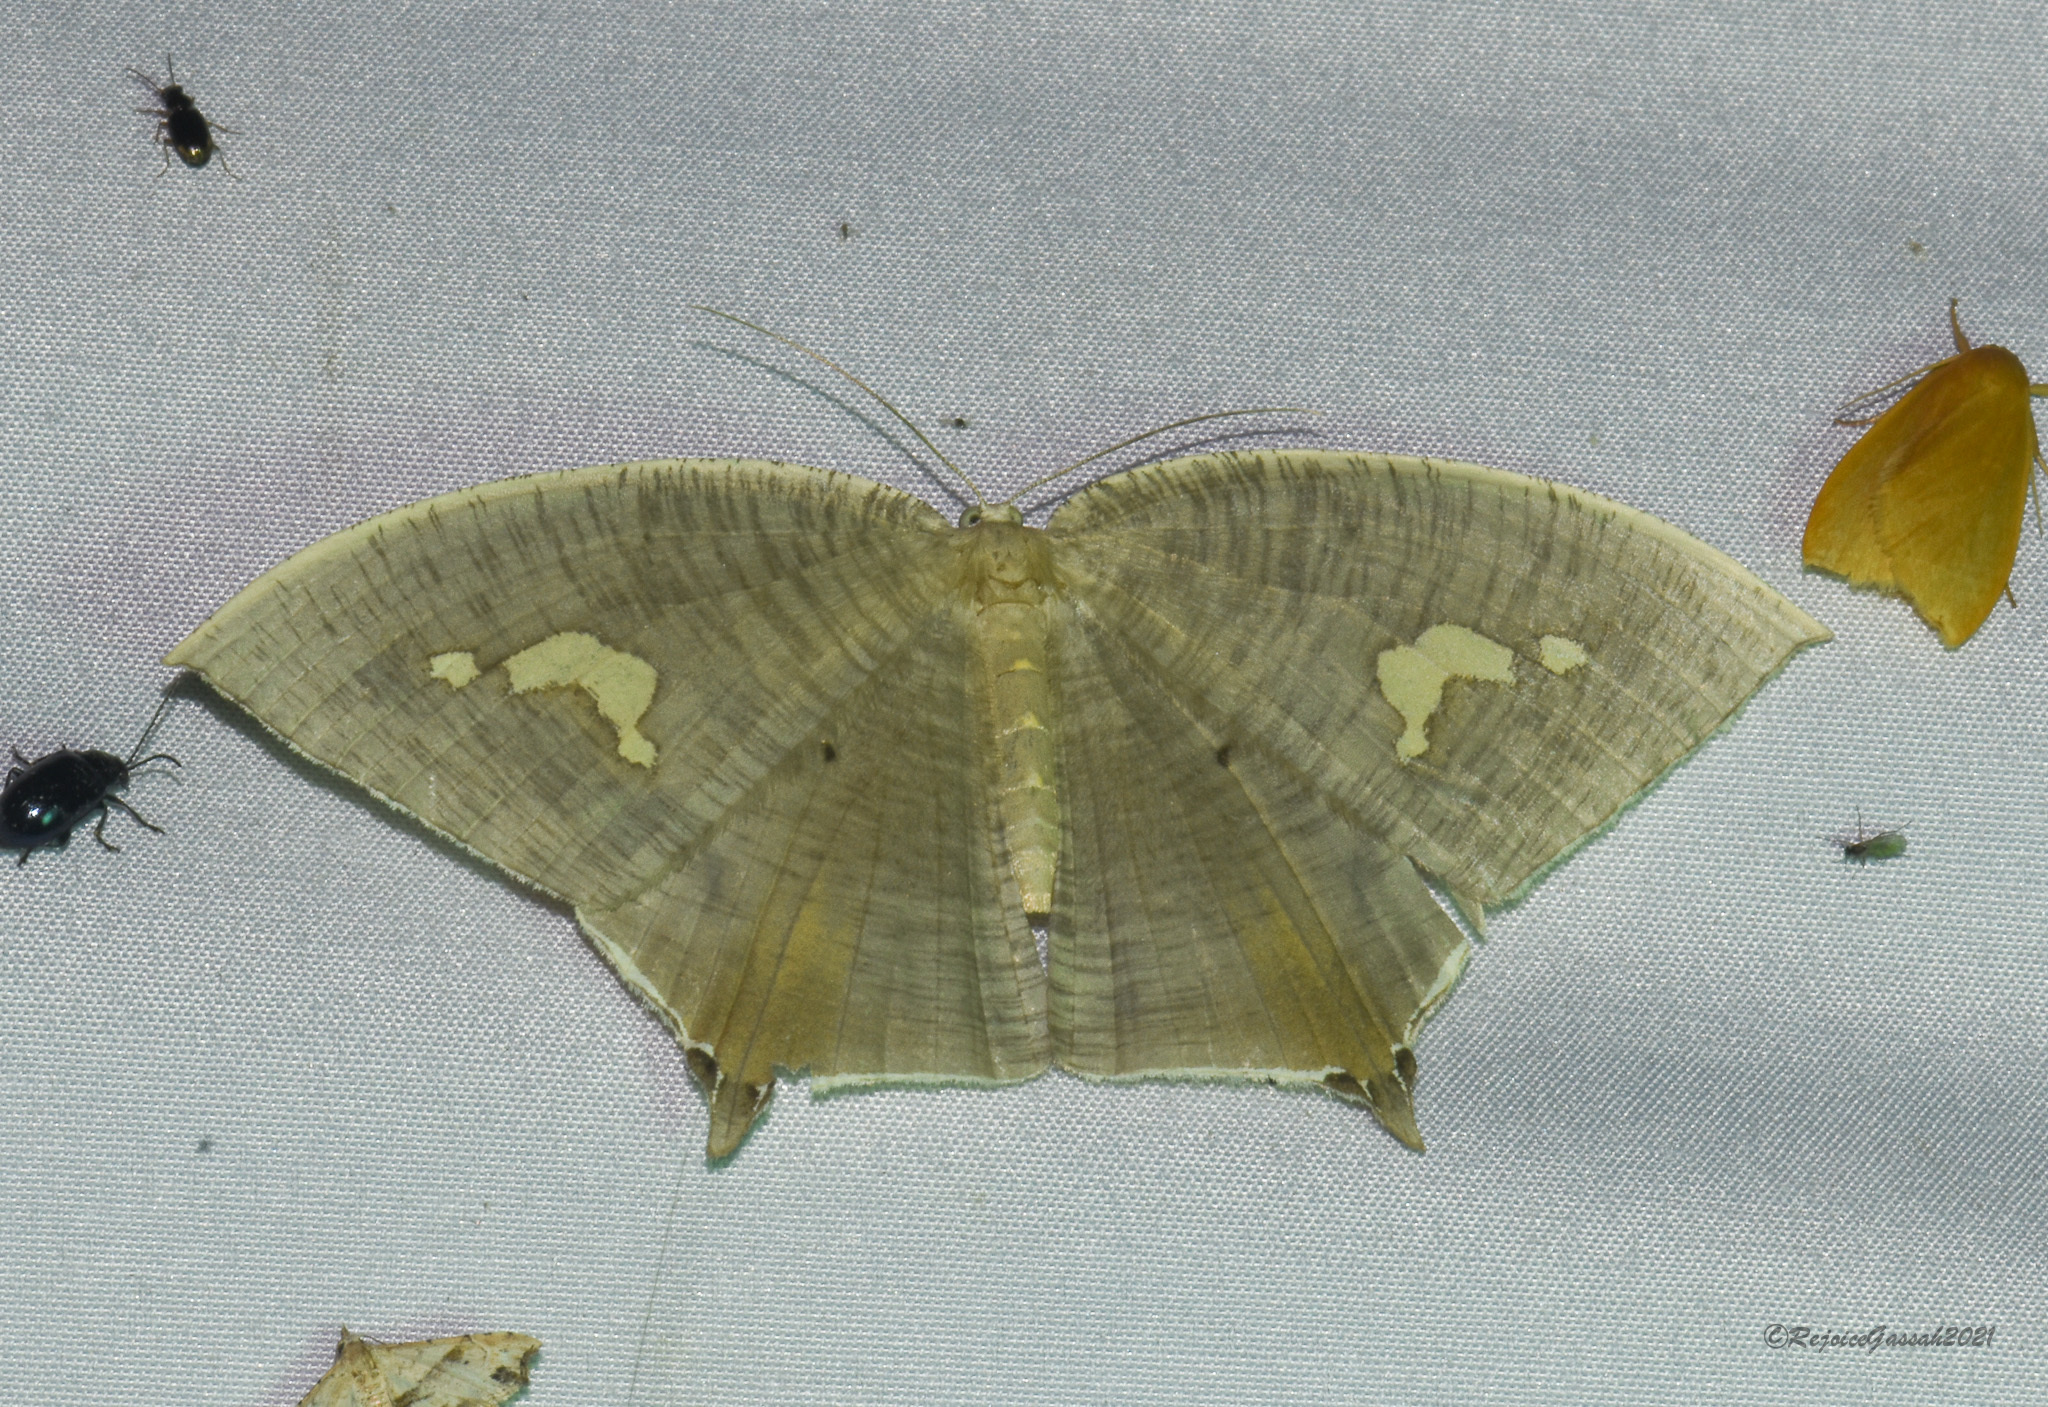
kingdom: Animalia
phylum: Arthropoda
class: Insecta
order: Lepidoptera
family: Geometridae
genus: Xeropteryx
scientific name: Xeropteryx columbicola
